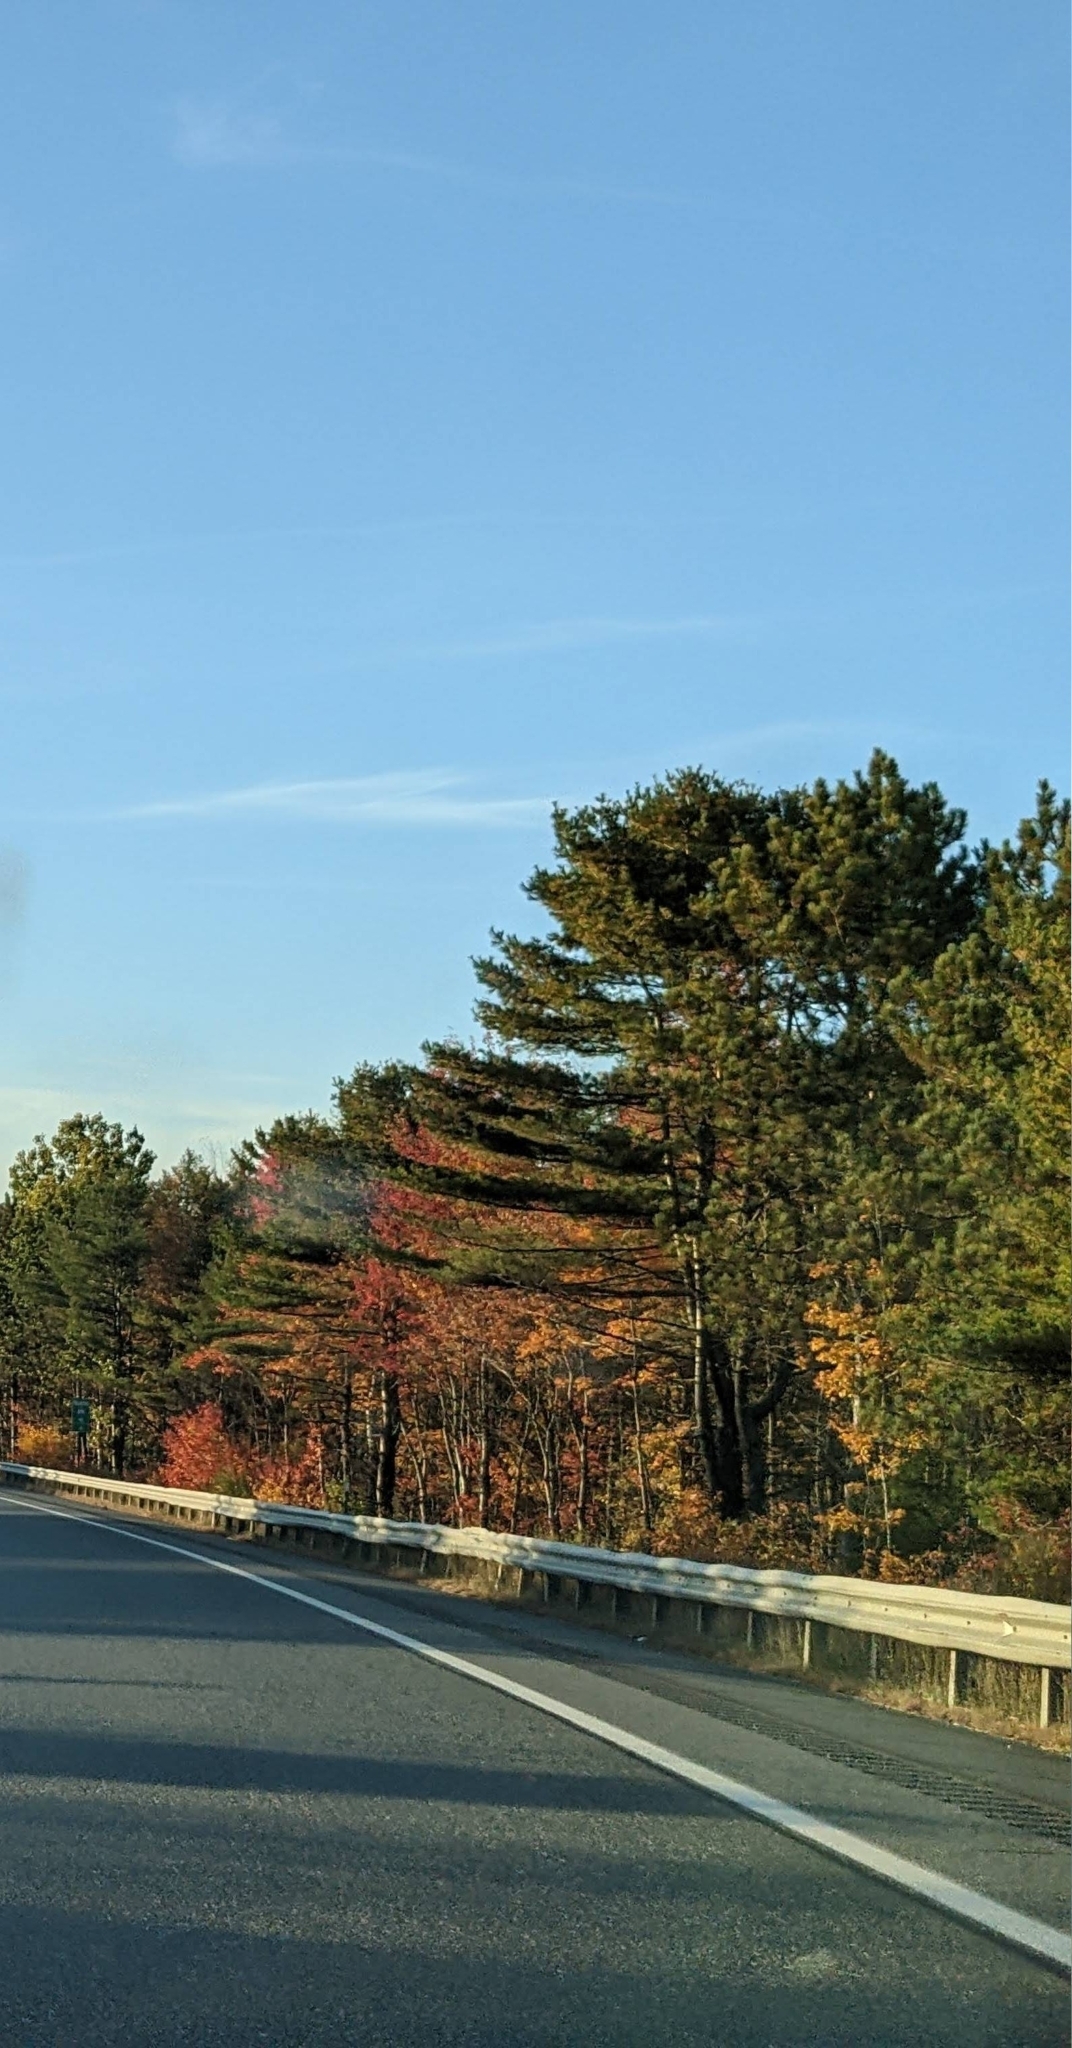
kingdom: Plantae
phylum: Tracheophyta
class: Pinopsida
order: Pinales
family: Pinaceae
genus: Pinus
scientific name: Pinus strobus
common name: Weymouth pine
